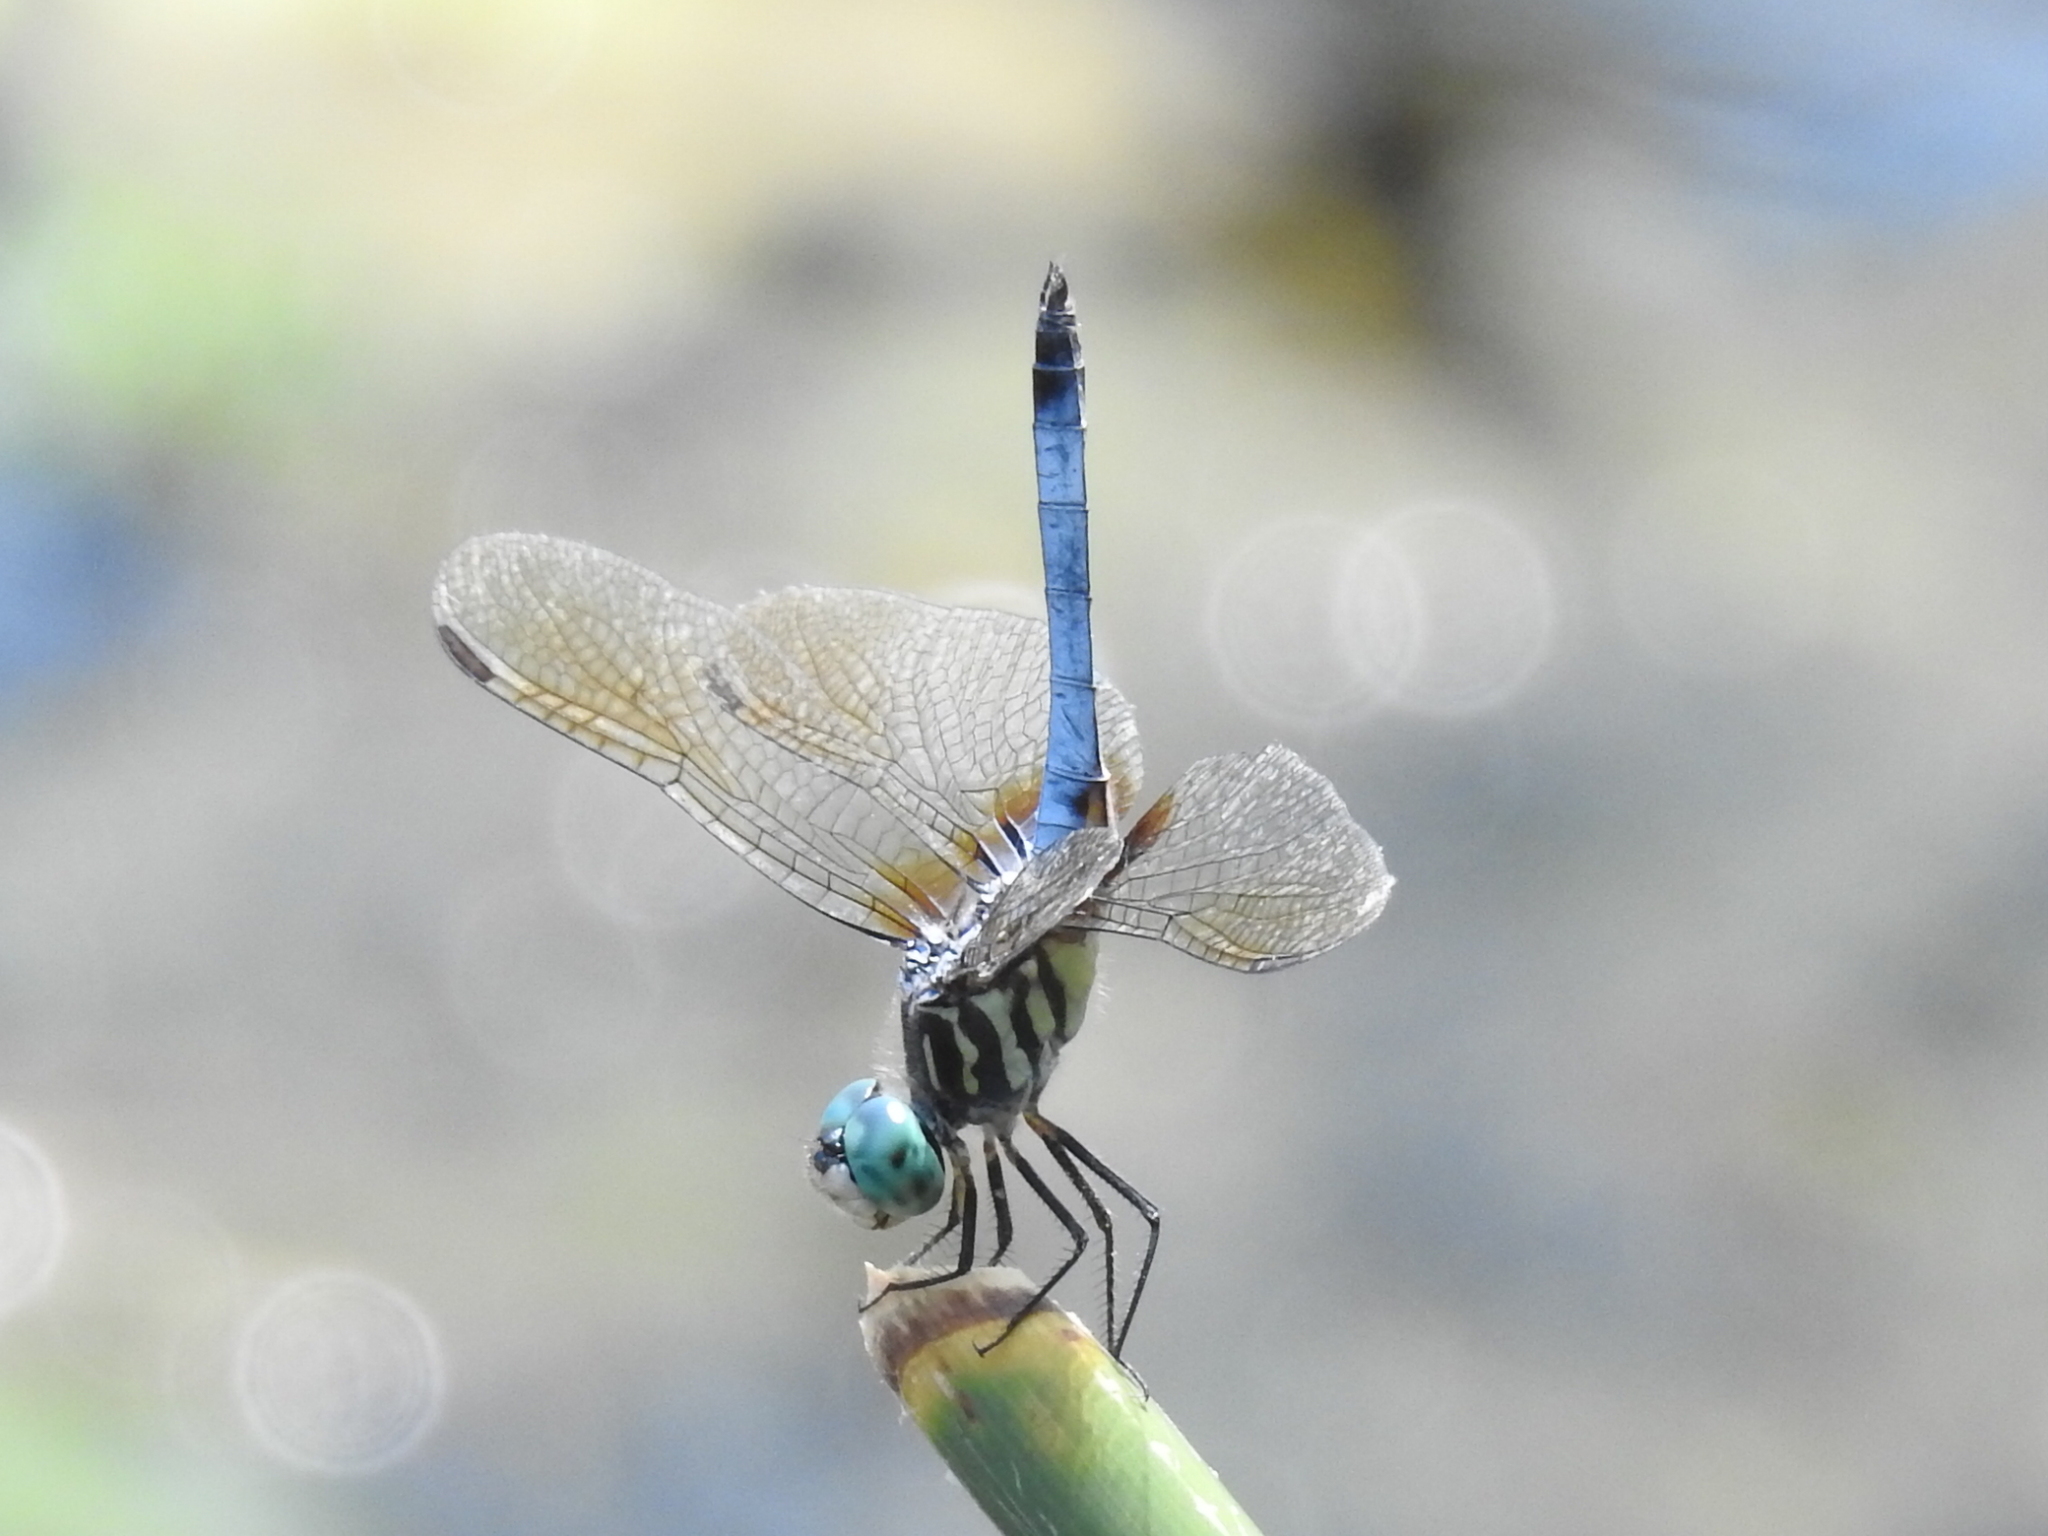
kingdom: Animalia
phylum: Arthropoda
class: Insecta
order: Odonata
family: Libellulidae
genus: Pachydiplax
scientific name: Pachydiplax longipennis
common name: Blue dasher
